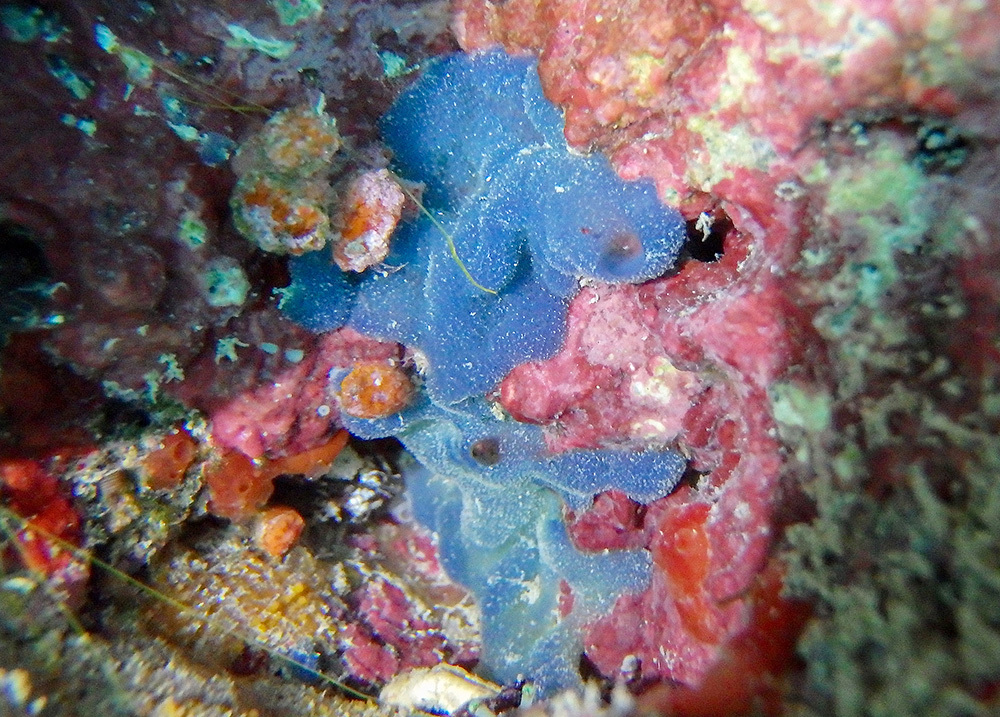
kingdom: Animalia
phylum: Porifera
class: Homoscleromorpha
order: Homosclerophorida
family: Oscarellidae
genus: Oscarella
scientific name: Oscarella lobularis
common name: Flesh sponge
